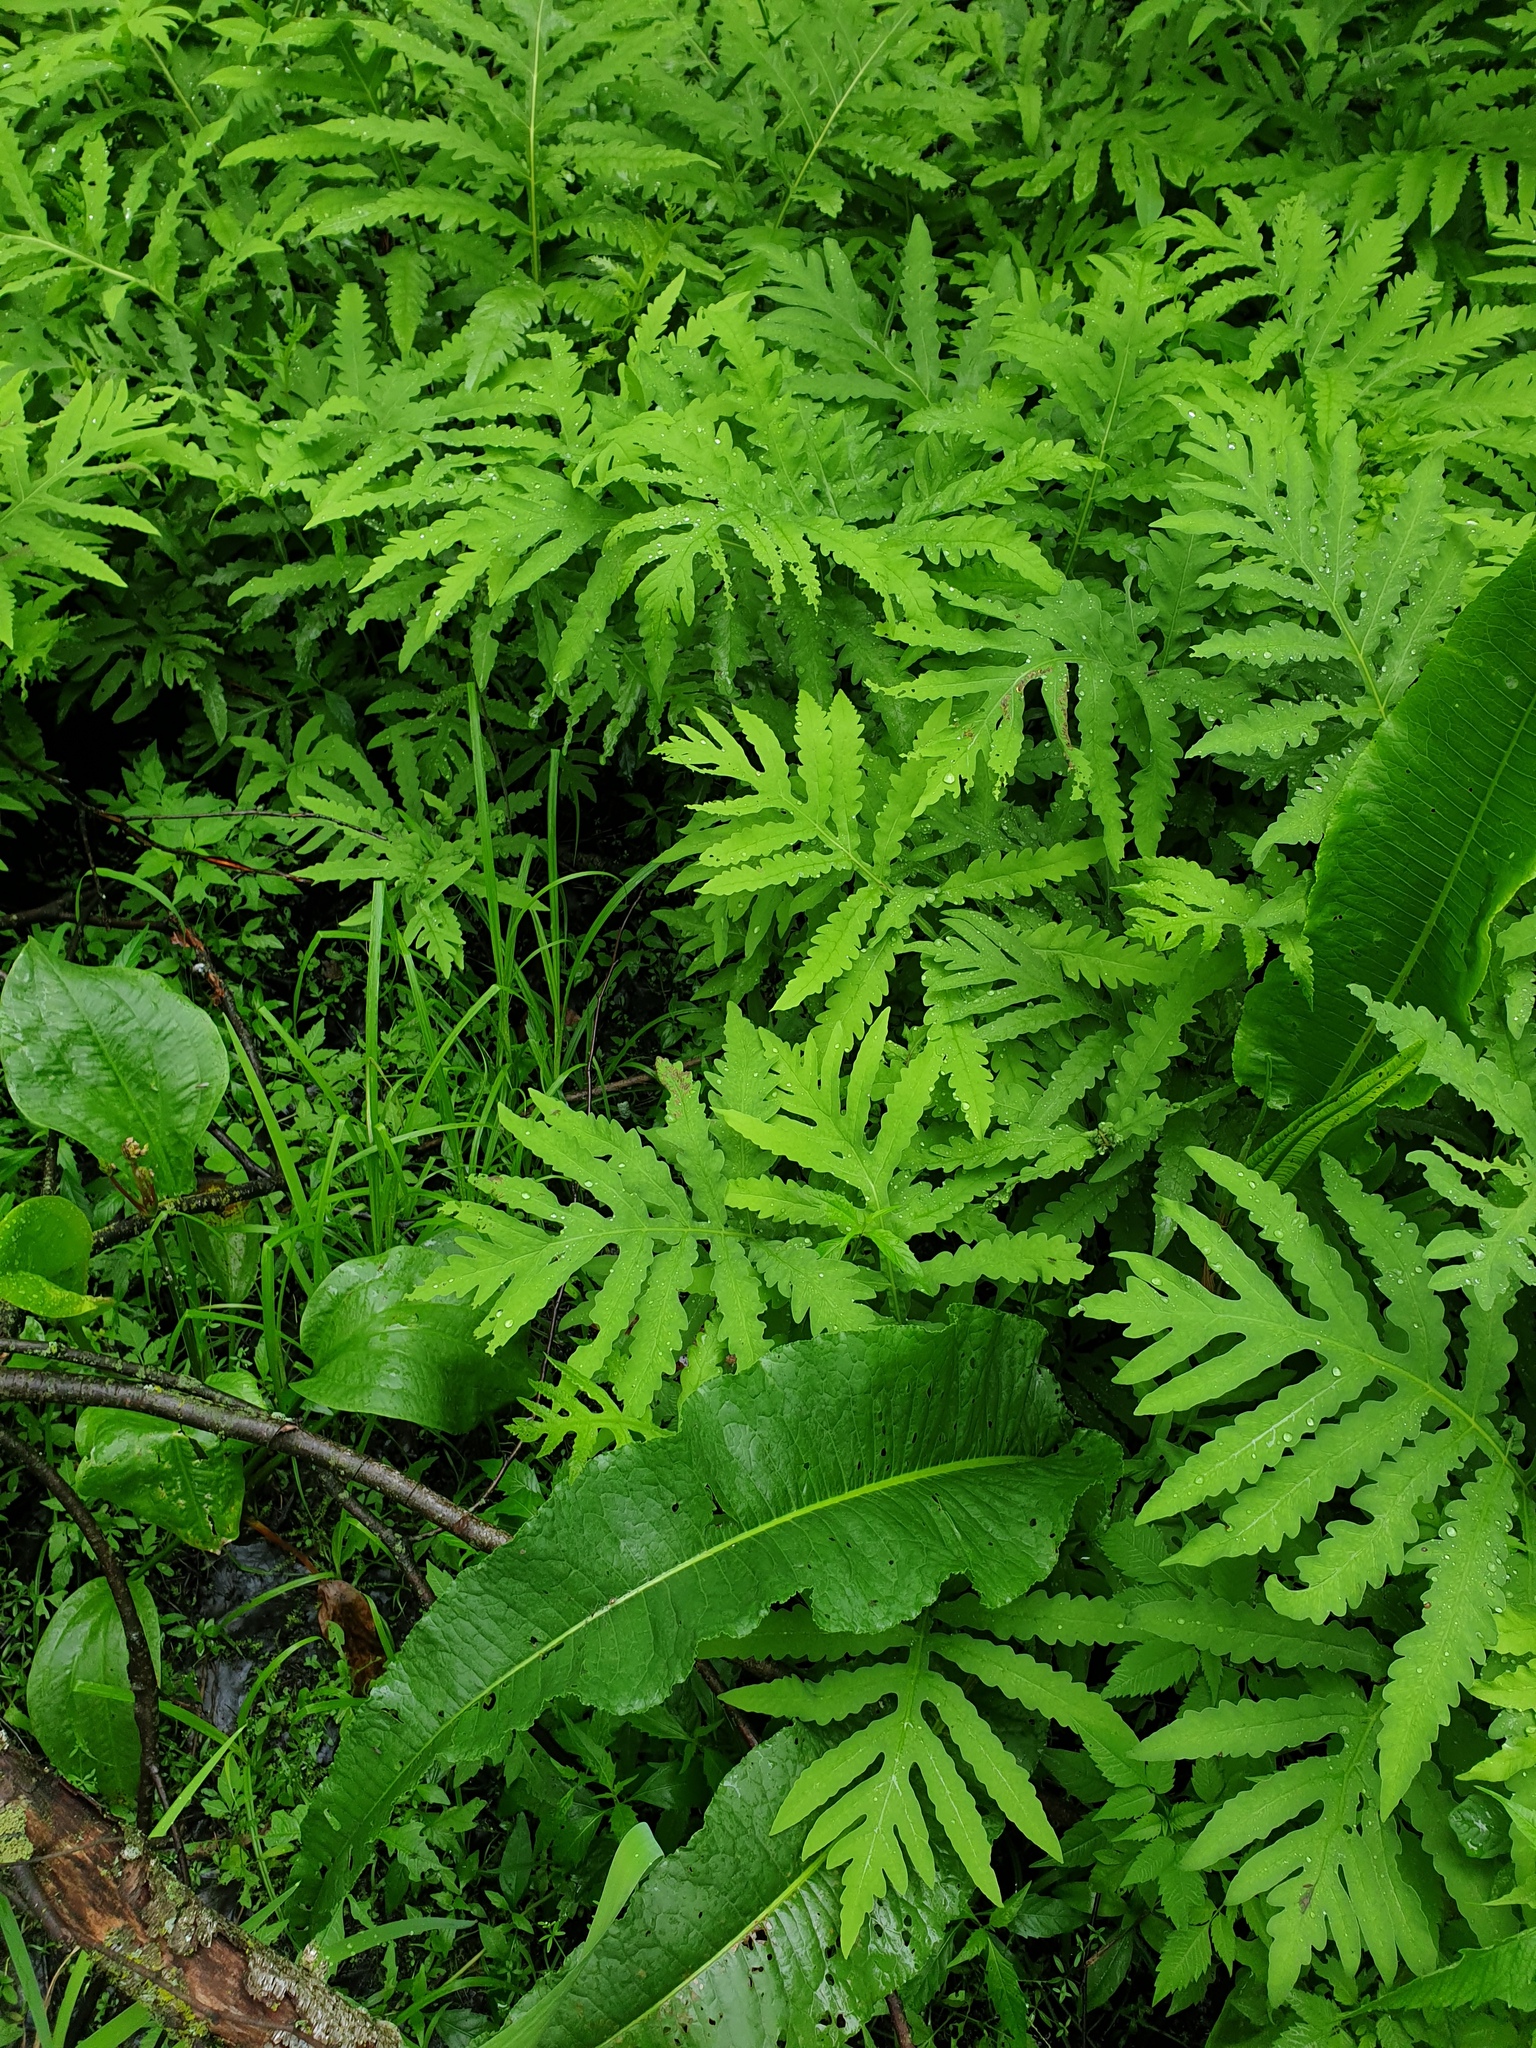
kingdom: Plantae
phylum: Tracheophyta
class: Magnoliopsida
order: Caryophyllales
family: Polygonaceae
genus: Rumex
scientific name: Rumex britannica
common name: British dock
